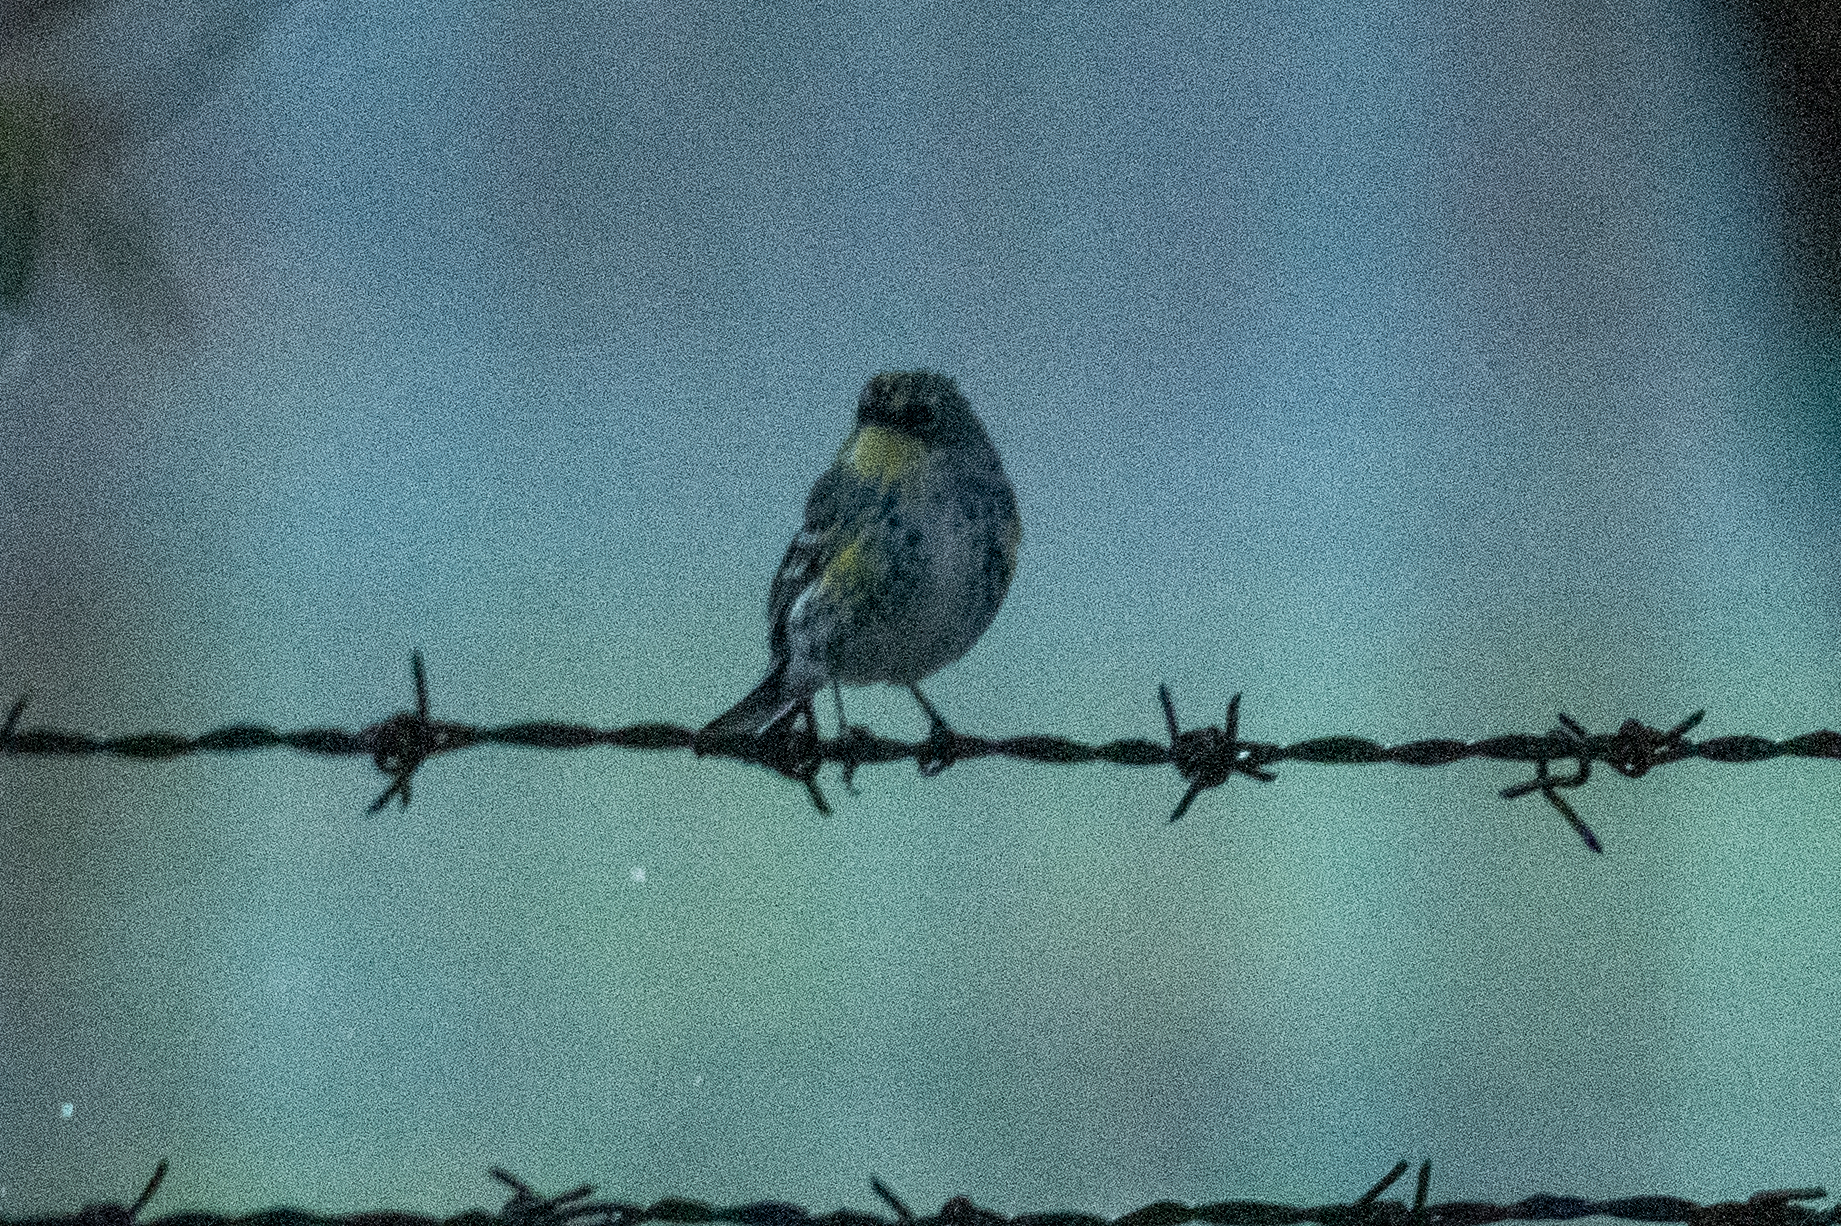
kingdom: Animalia
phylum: Chordata
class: Aves
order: Passeriformes
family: Parulidae
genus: Setophaga
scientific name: Setophaga coronata
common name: Myrtle warbler
